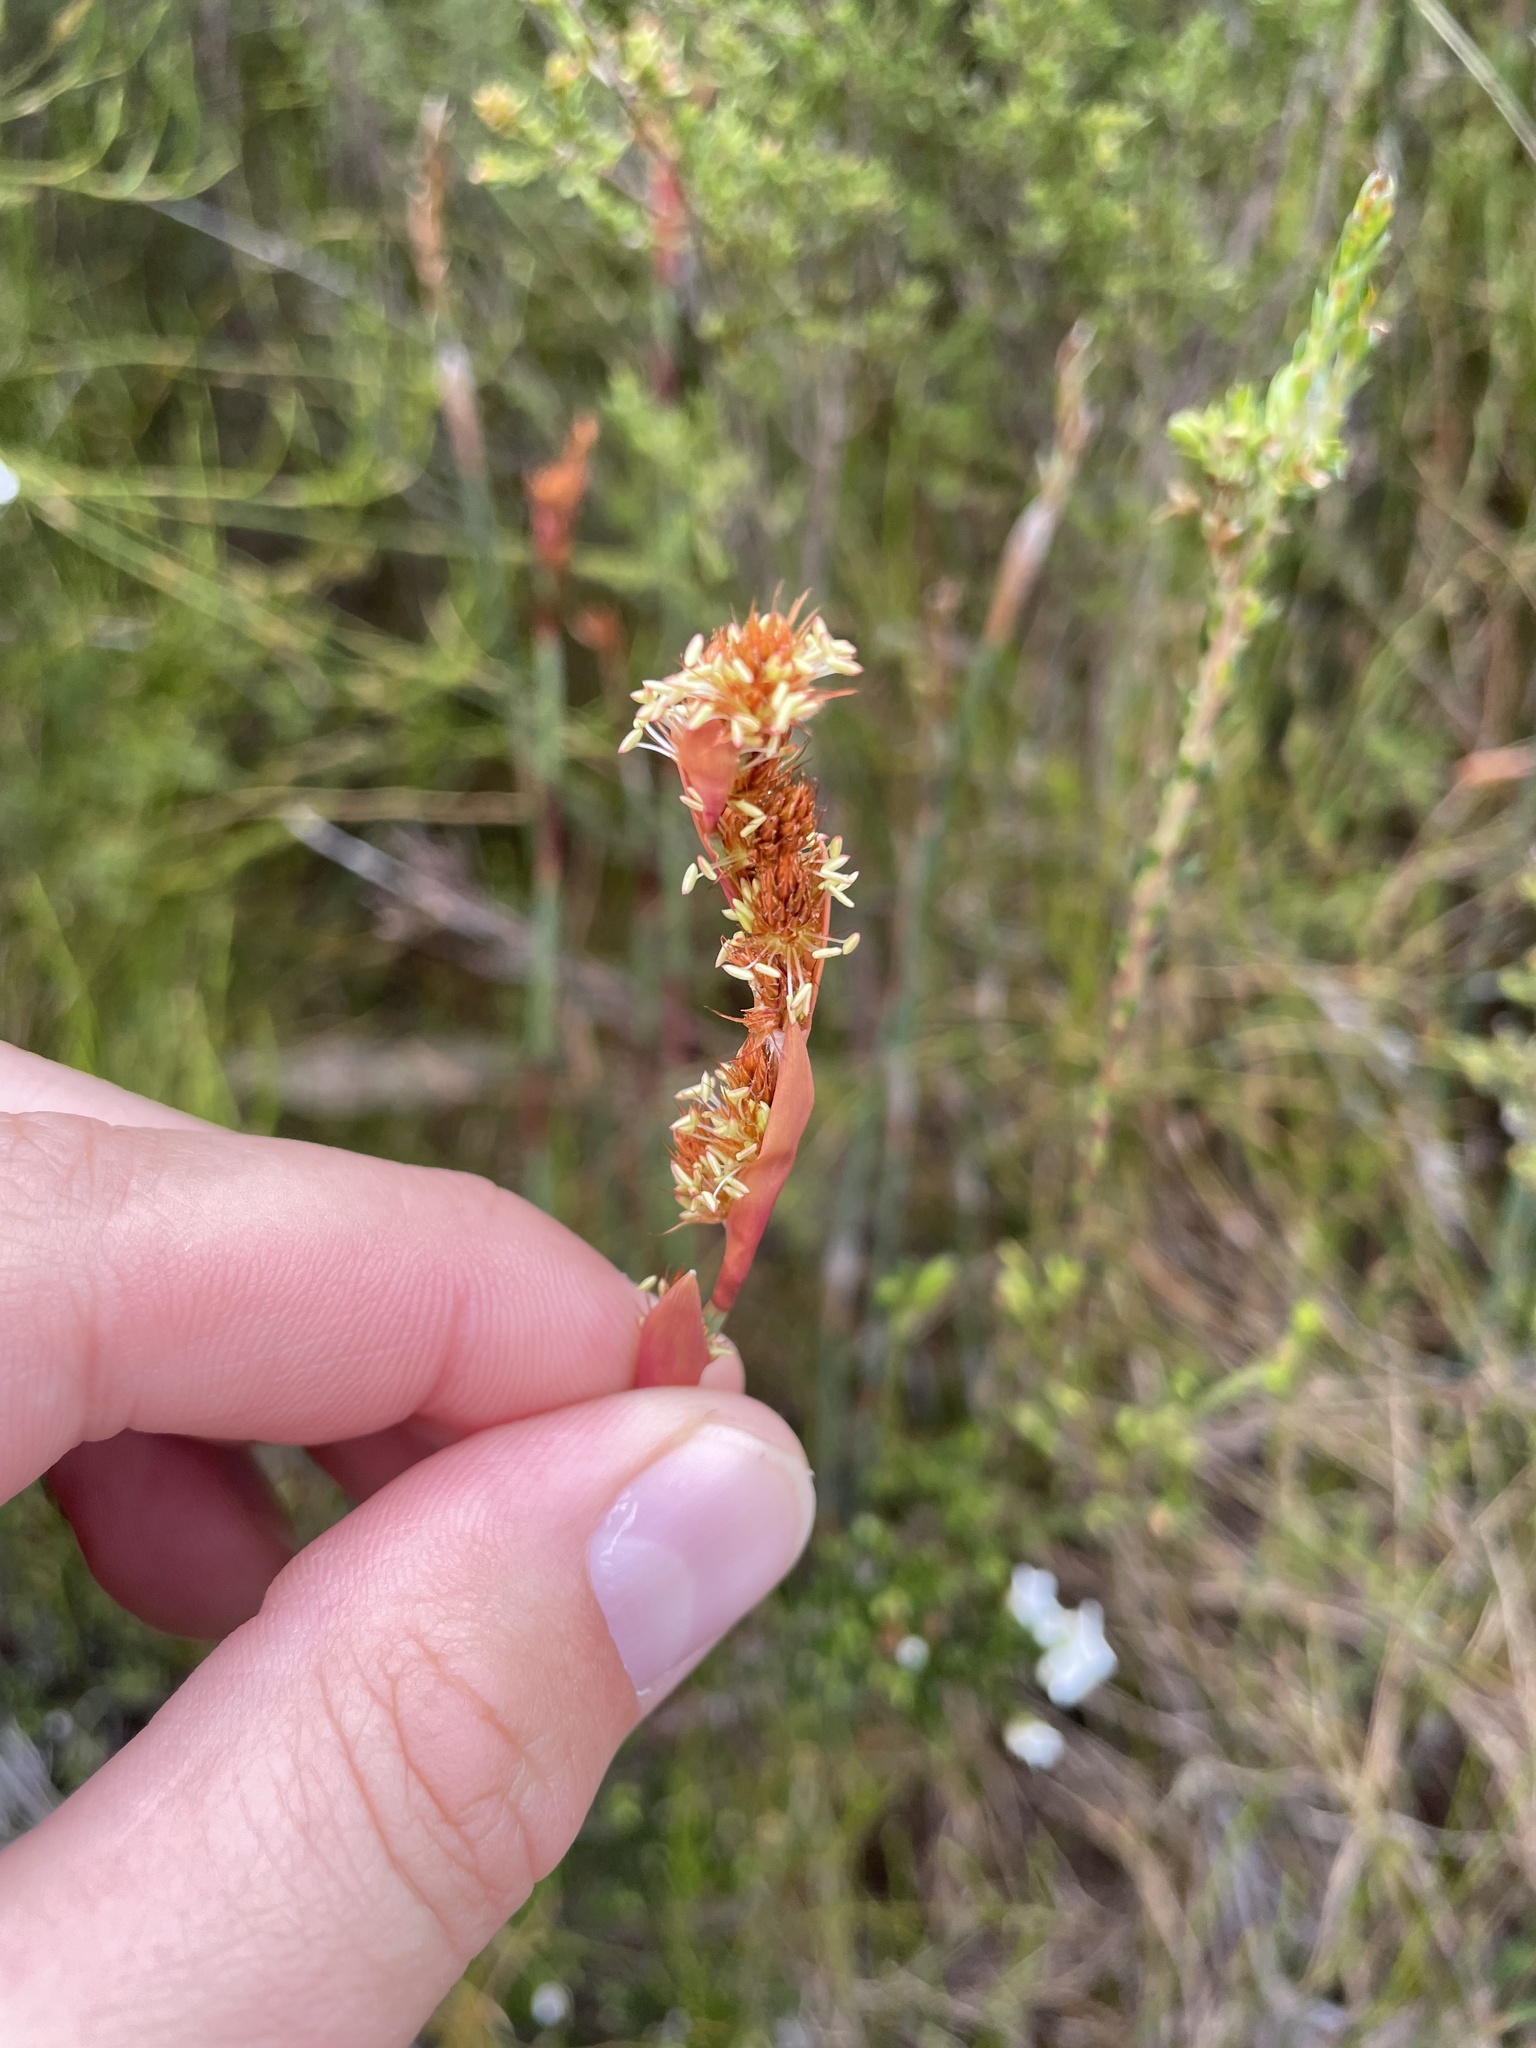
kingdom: Plantae
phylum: Tracheophyta
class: Liliopsida
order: Poales
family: Restionaceae
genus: Baloskion
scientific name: Baloskion australe
